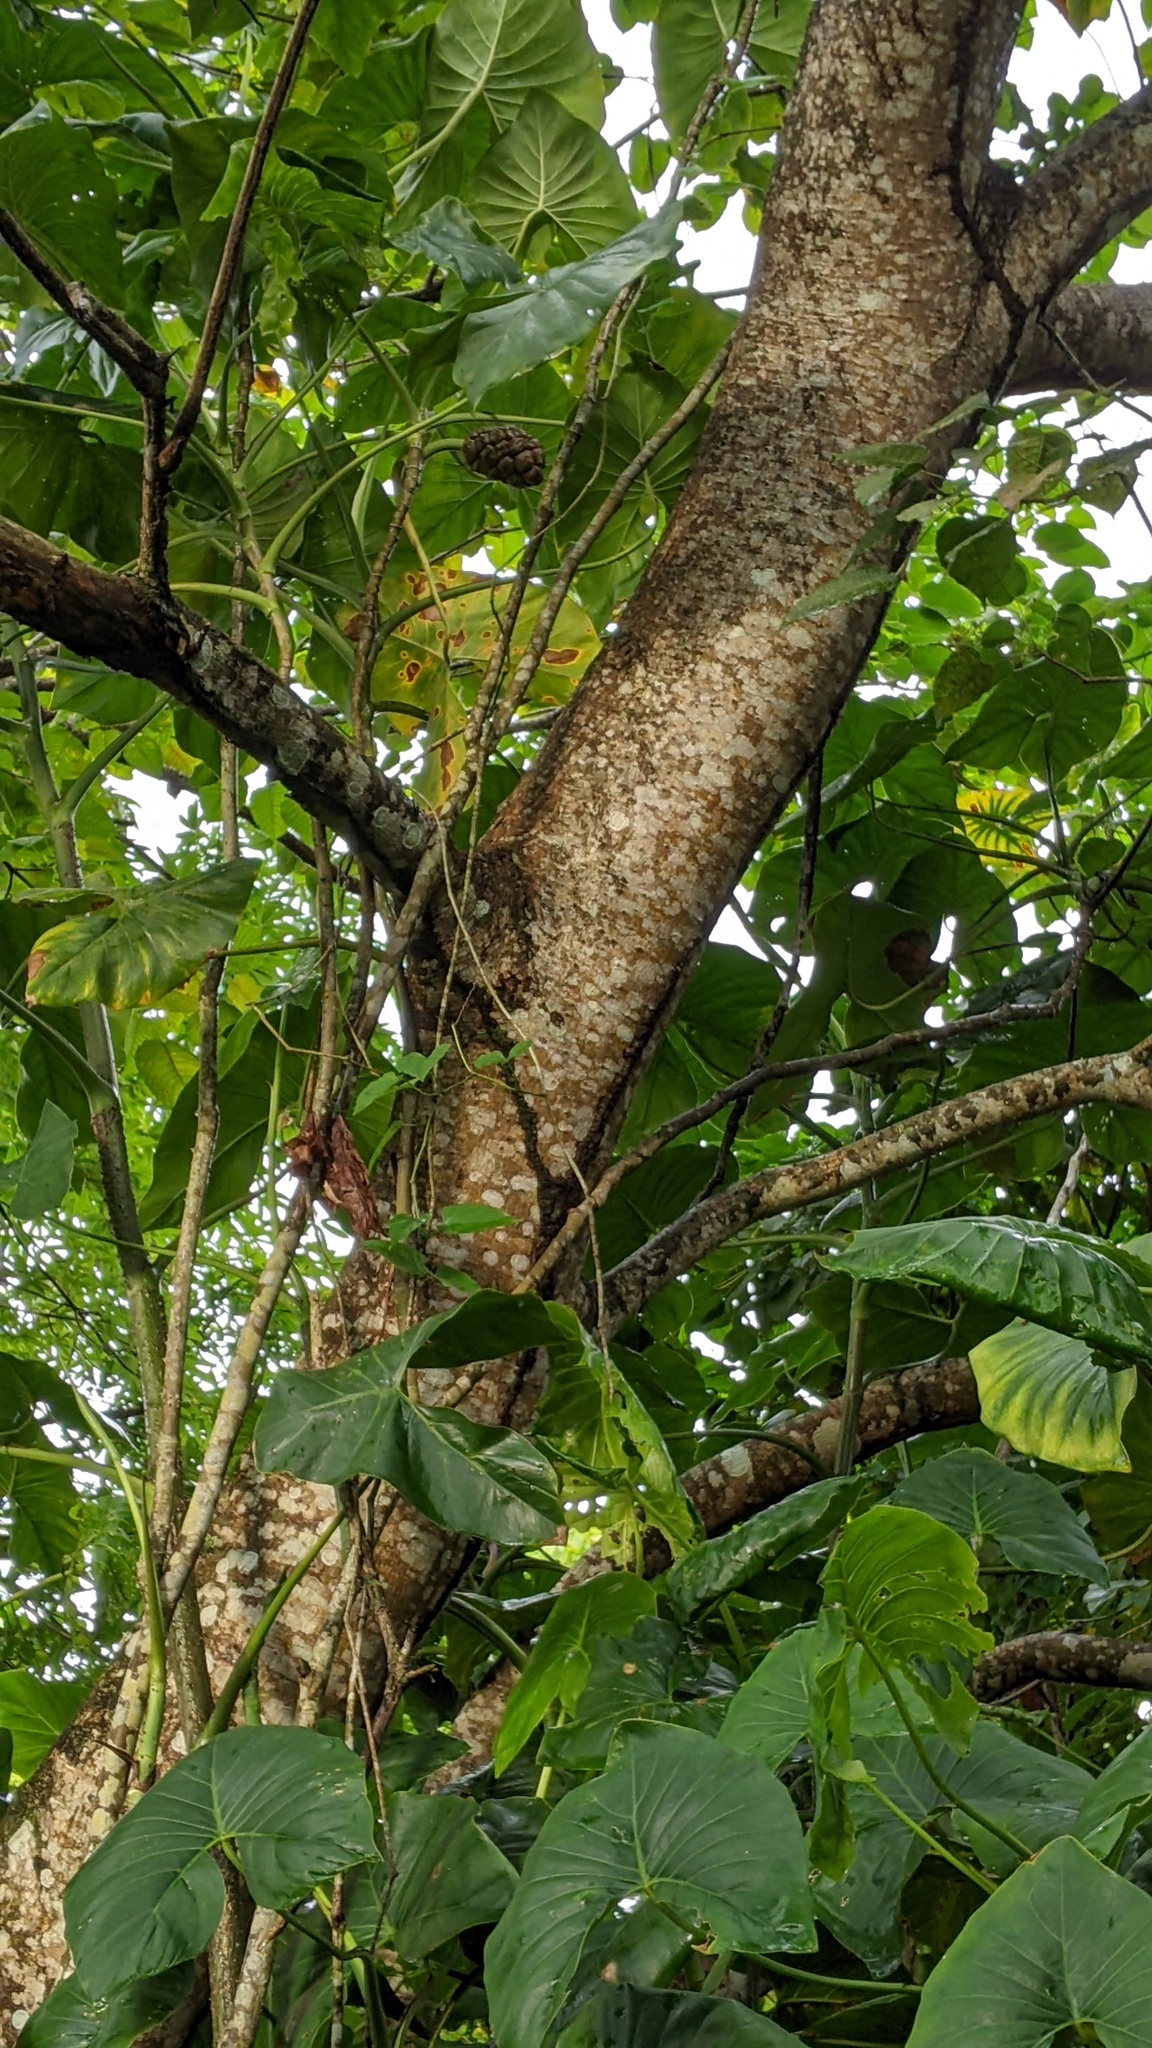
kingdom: Plantae
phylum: Tracheophyta
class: Magnoliopsida
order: Malpighiales
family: Euphorbiaceae
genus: Hura
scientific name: Hura crepitans
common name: Sandboxtree
